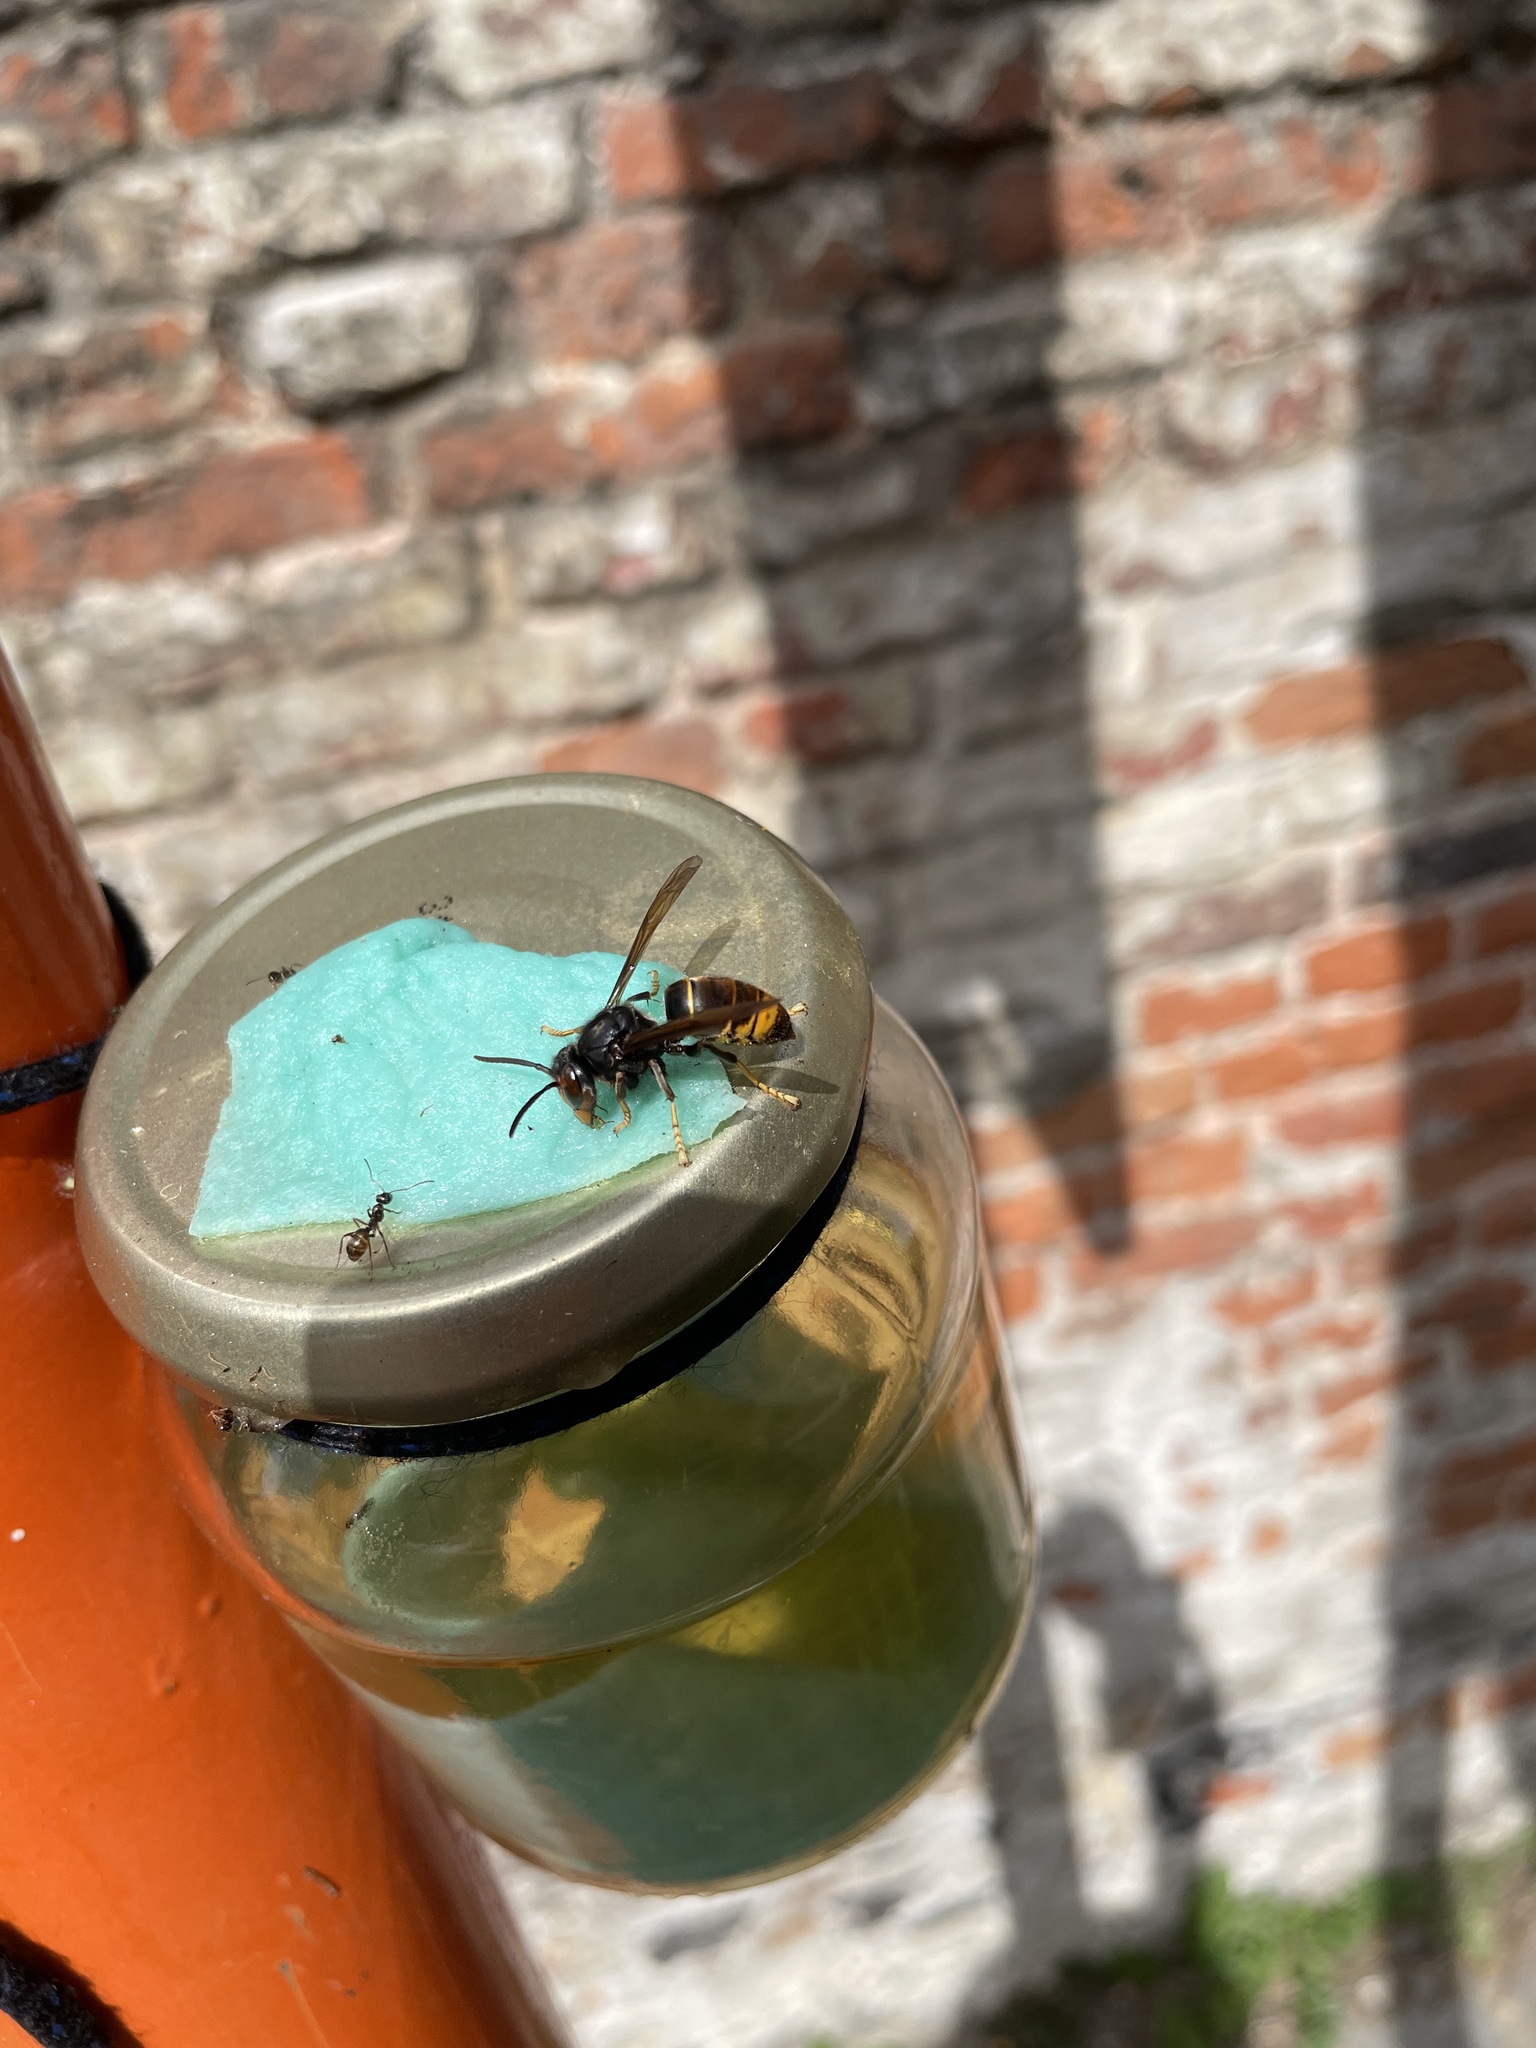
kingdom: Animalia
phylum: Arthropoda
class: Insecta
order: Hymenoptera
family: Vespidae
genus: Vespa
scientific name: Vespa velutina
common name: Asian hornet
